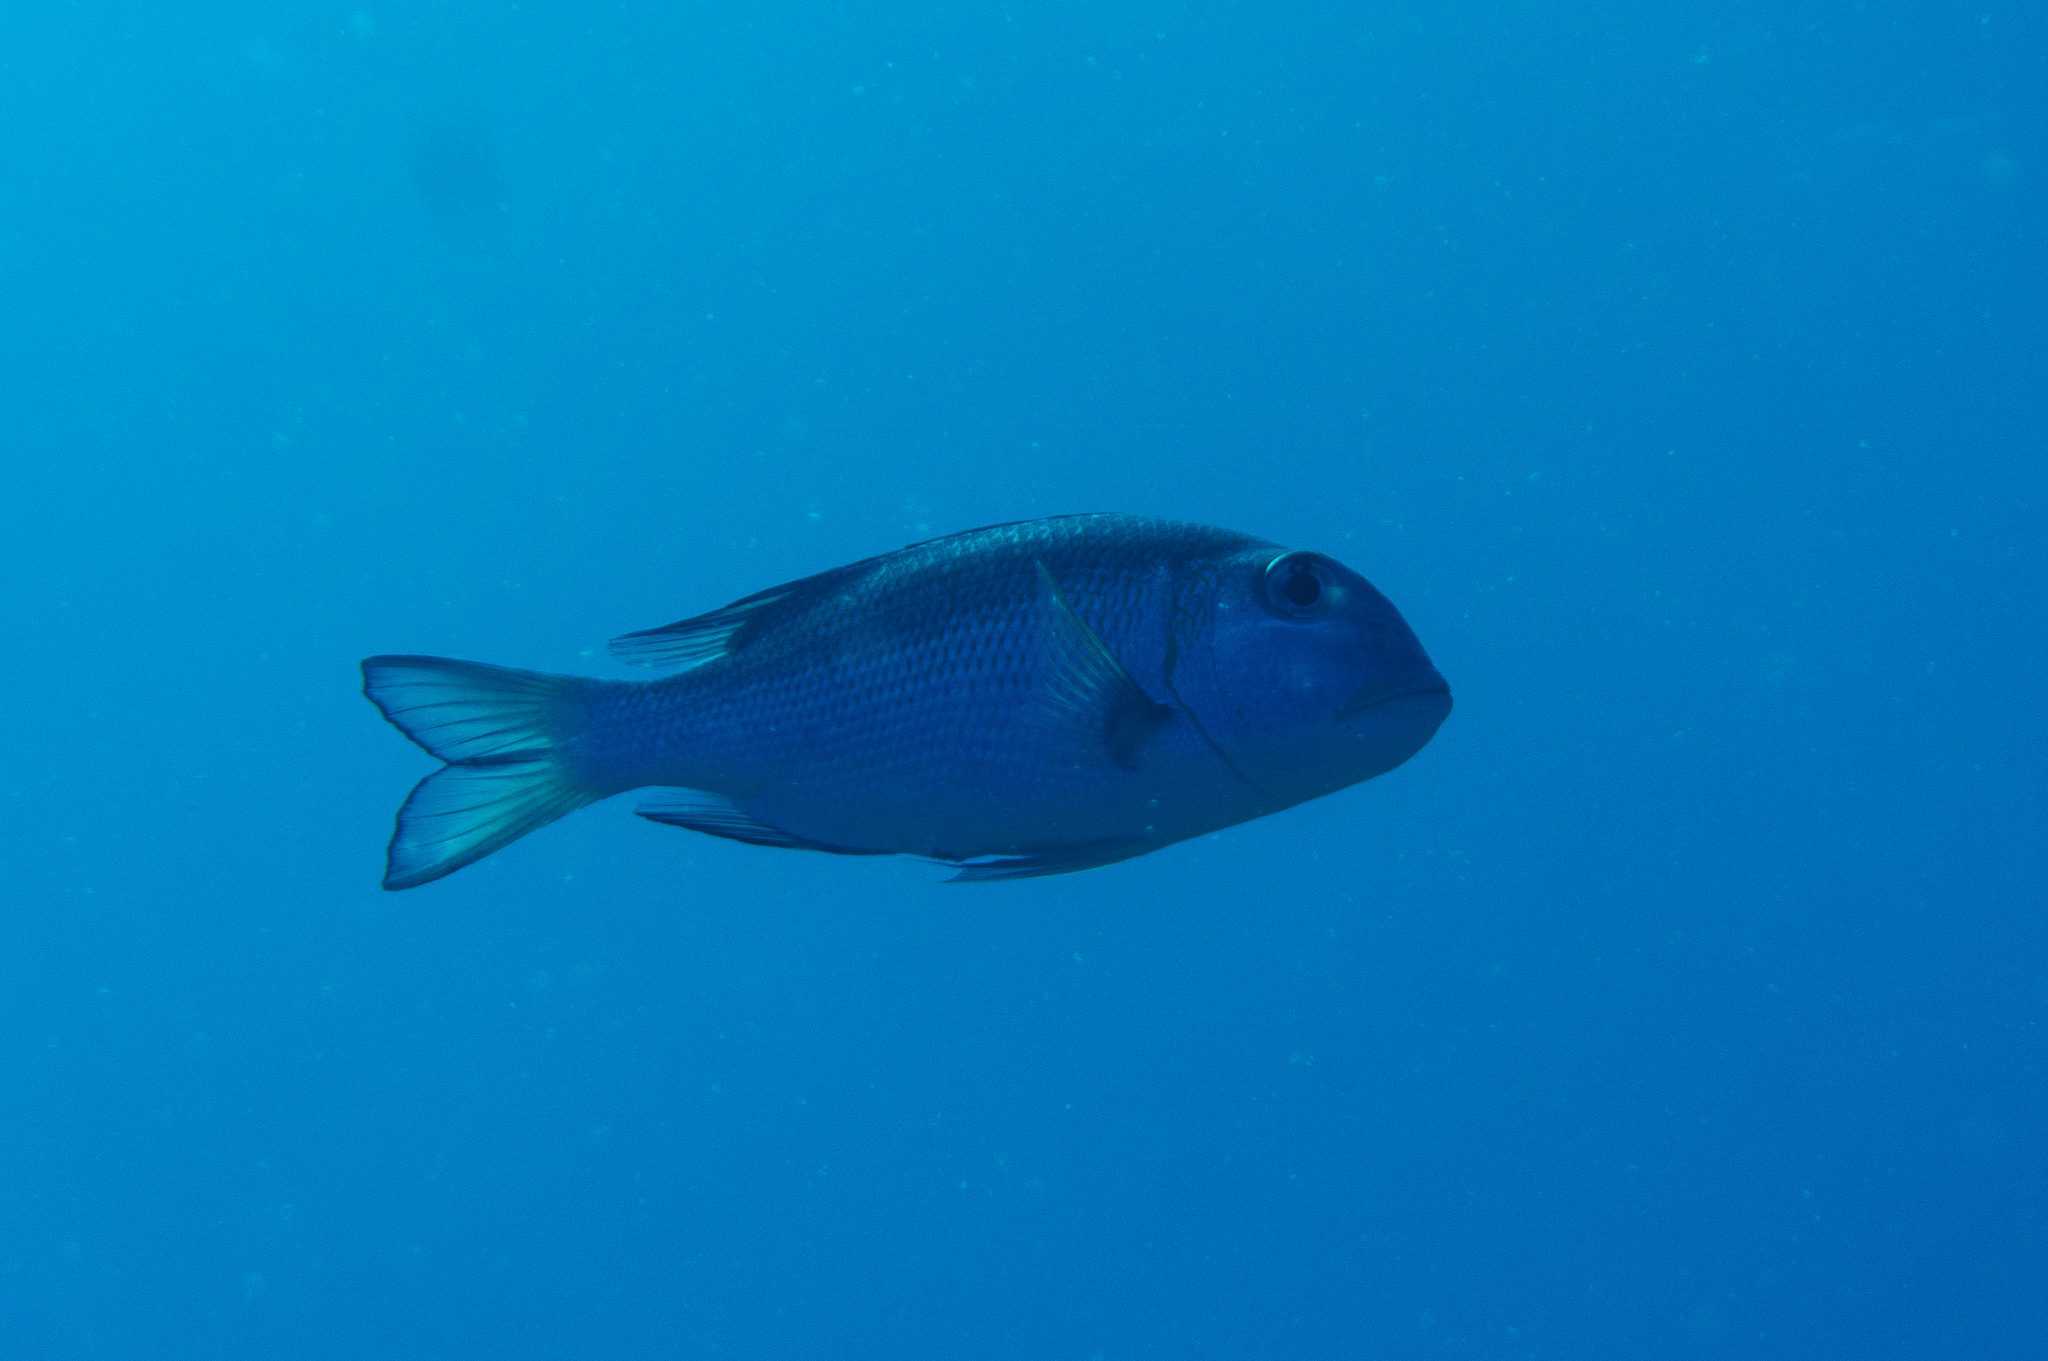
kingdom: Animalia
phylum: Chordata
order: Perciformes
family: Lethrinidae
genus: Monotaxis
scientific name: Monotaxis grandoculis
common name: Bigeye emperor
